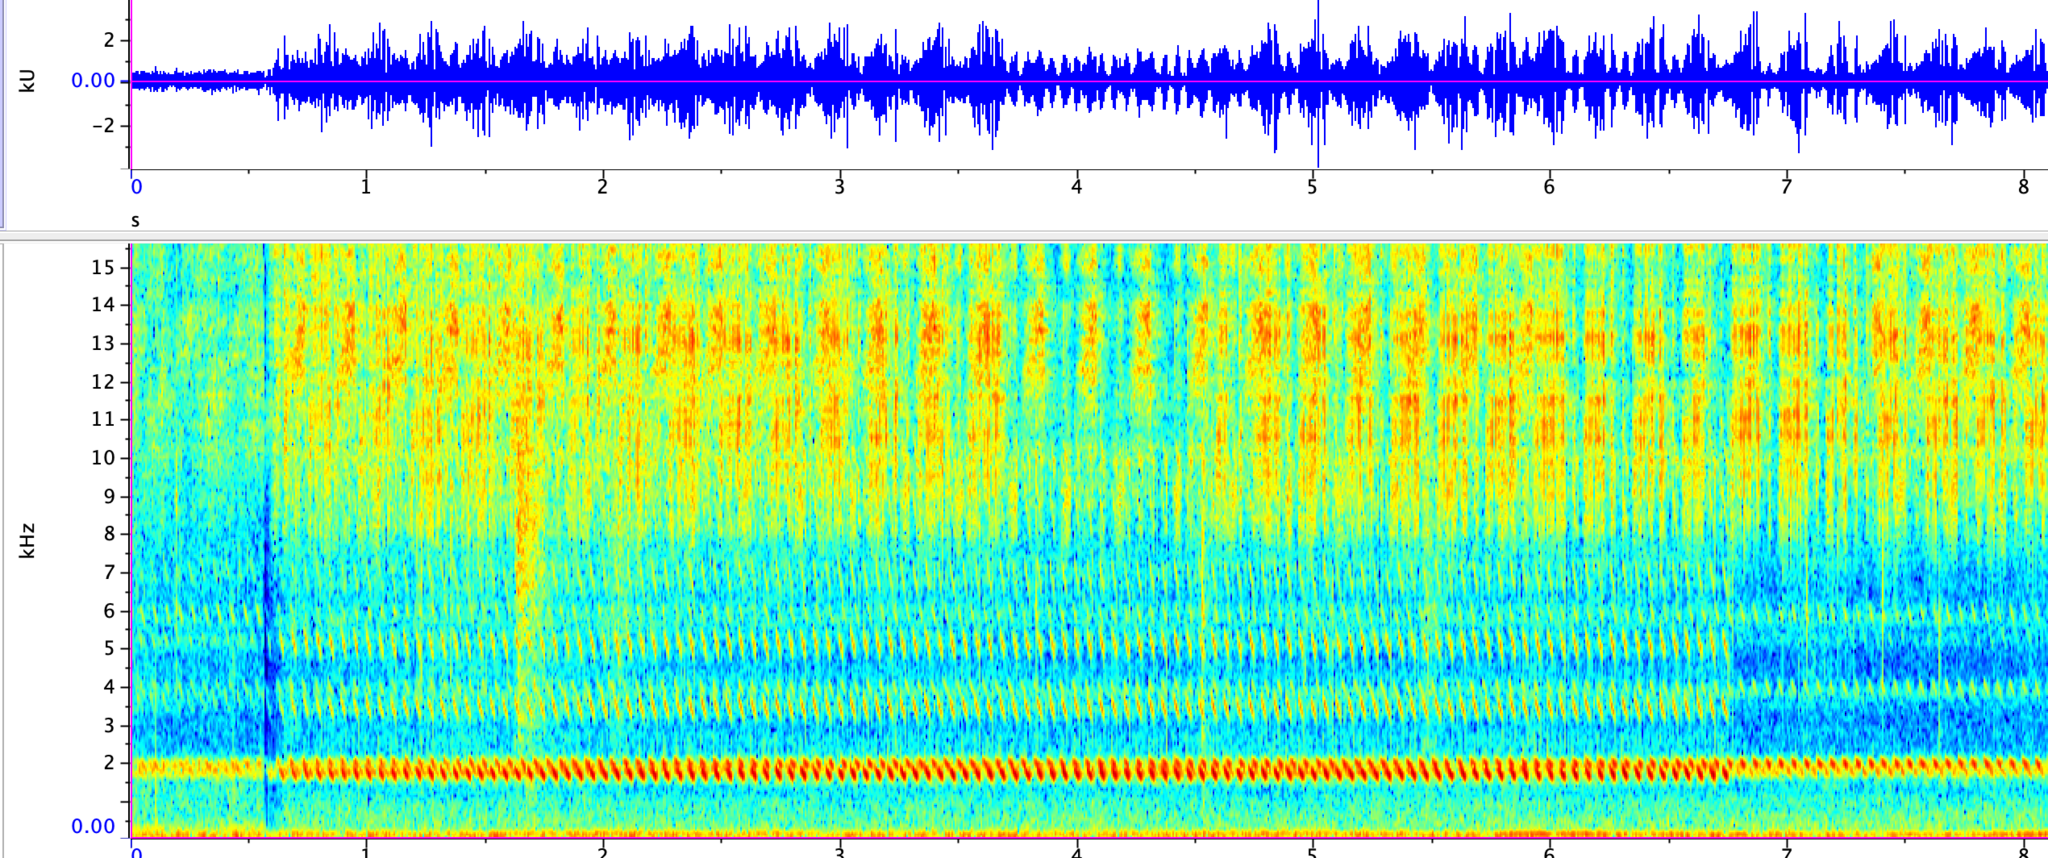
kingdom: Animalia
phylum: Arthropoda
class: Insecta
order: Orthoptera
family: Gryllidae
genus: Oecanthus
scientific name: Oecanthus californicus
